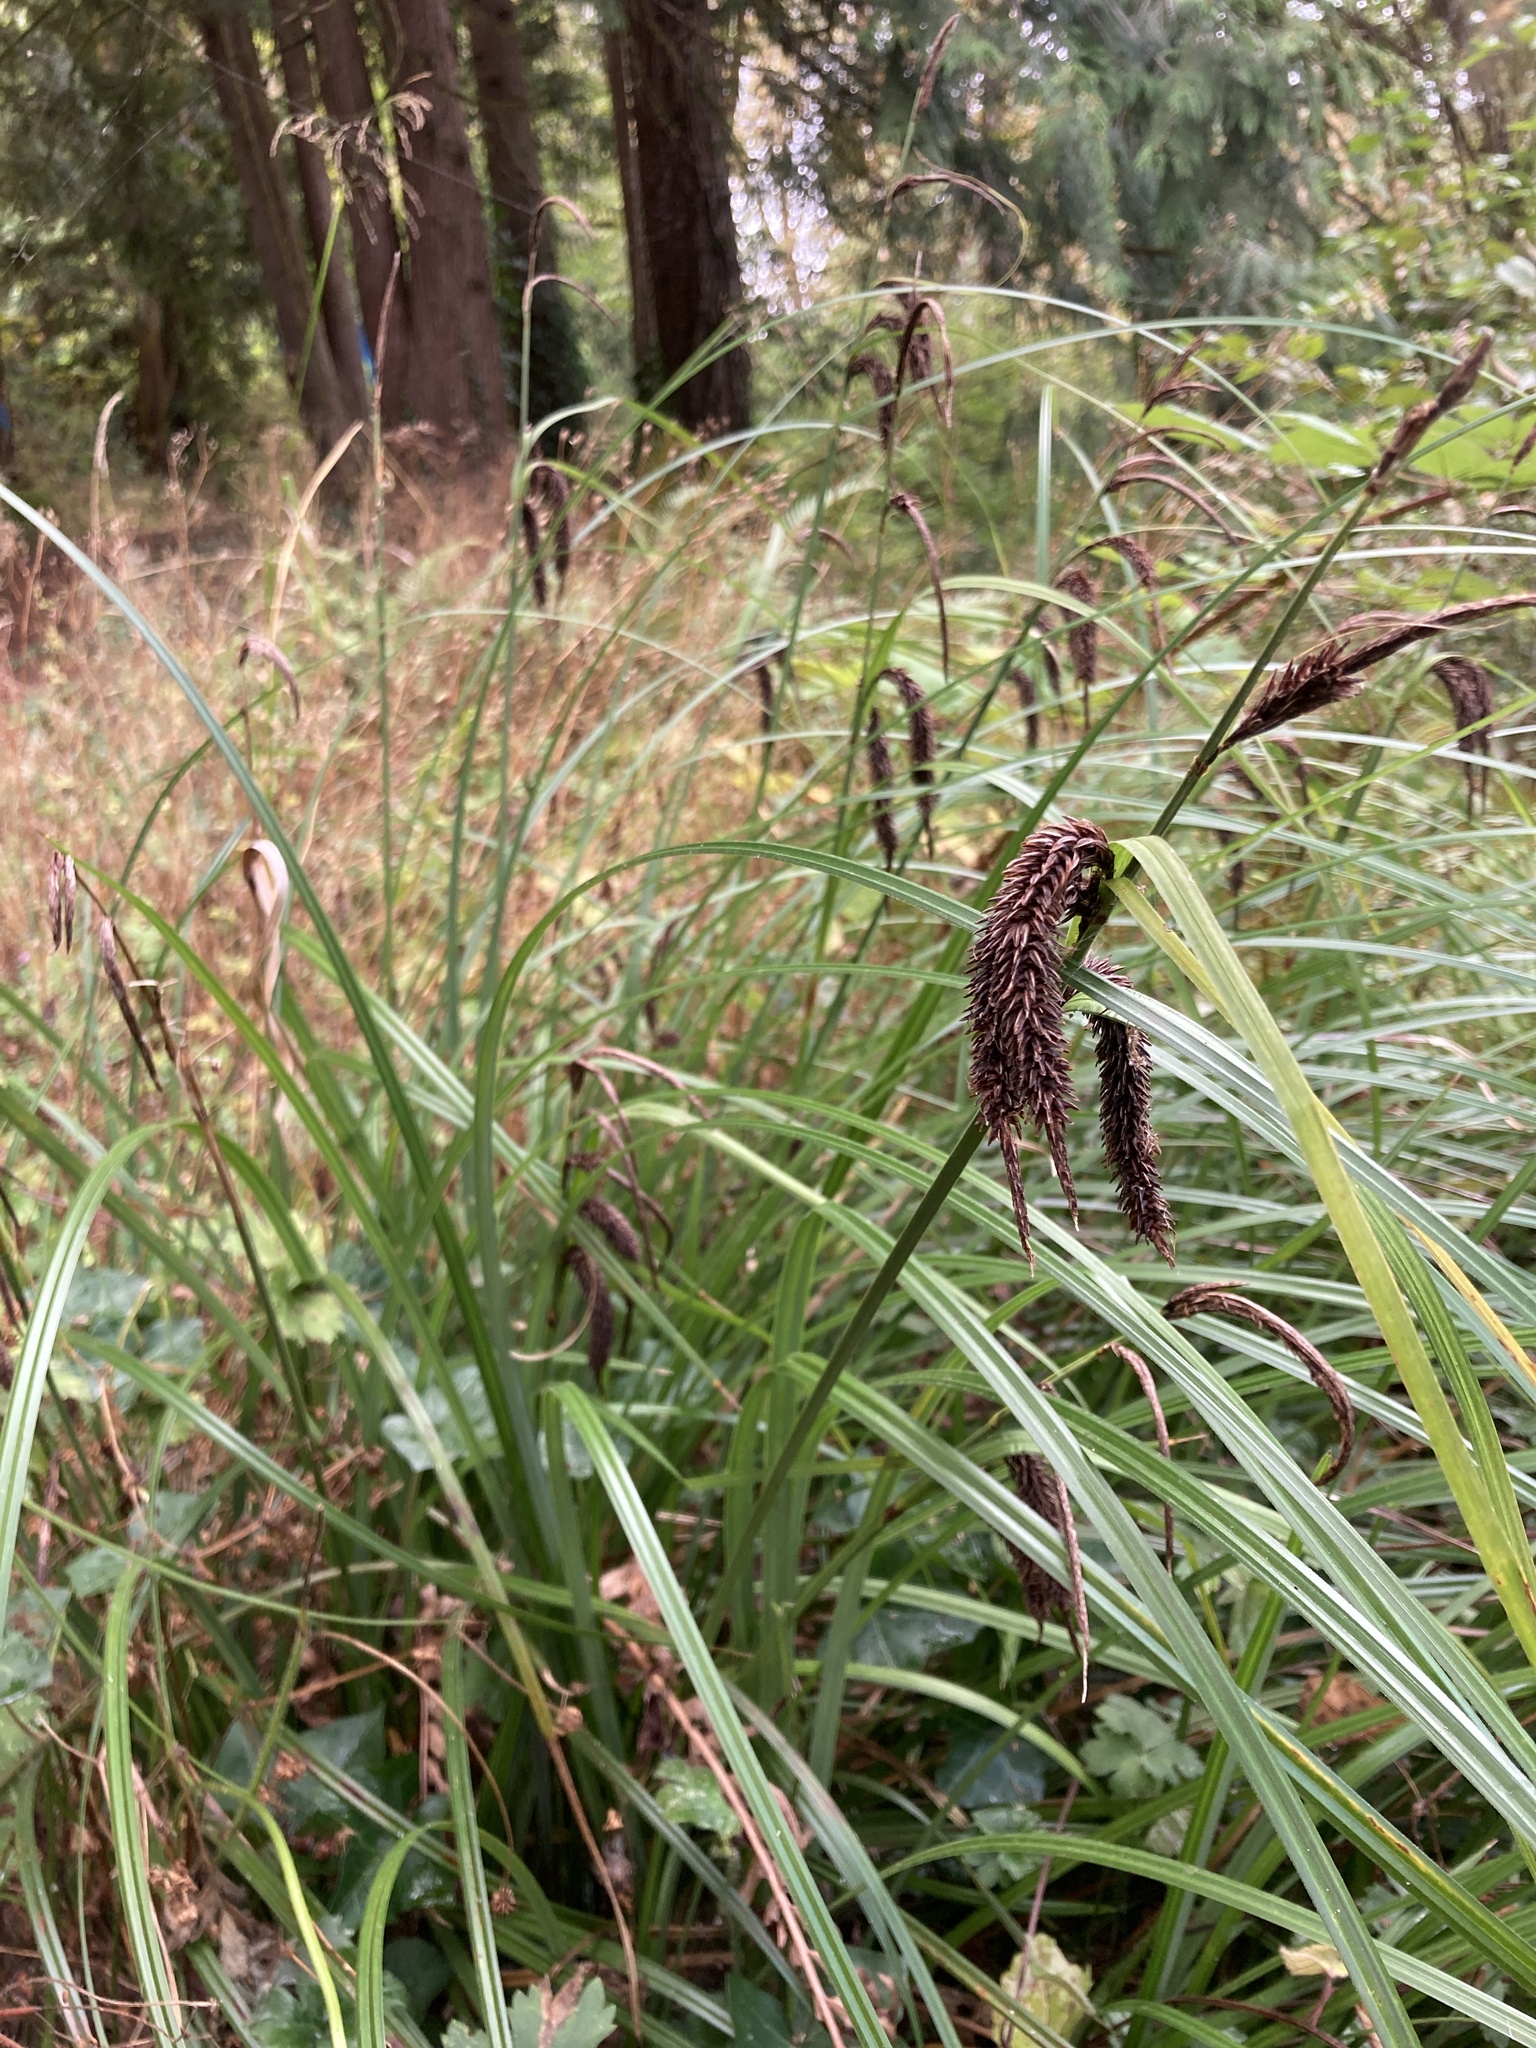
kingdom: Plantae
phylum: Tracheophyta
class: Liliopsida
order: Poales
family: Cyperaceae
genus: Carex
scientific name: Carex obnupta
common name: Slough sedge
